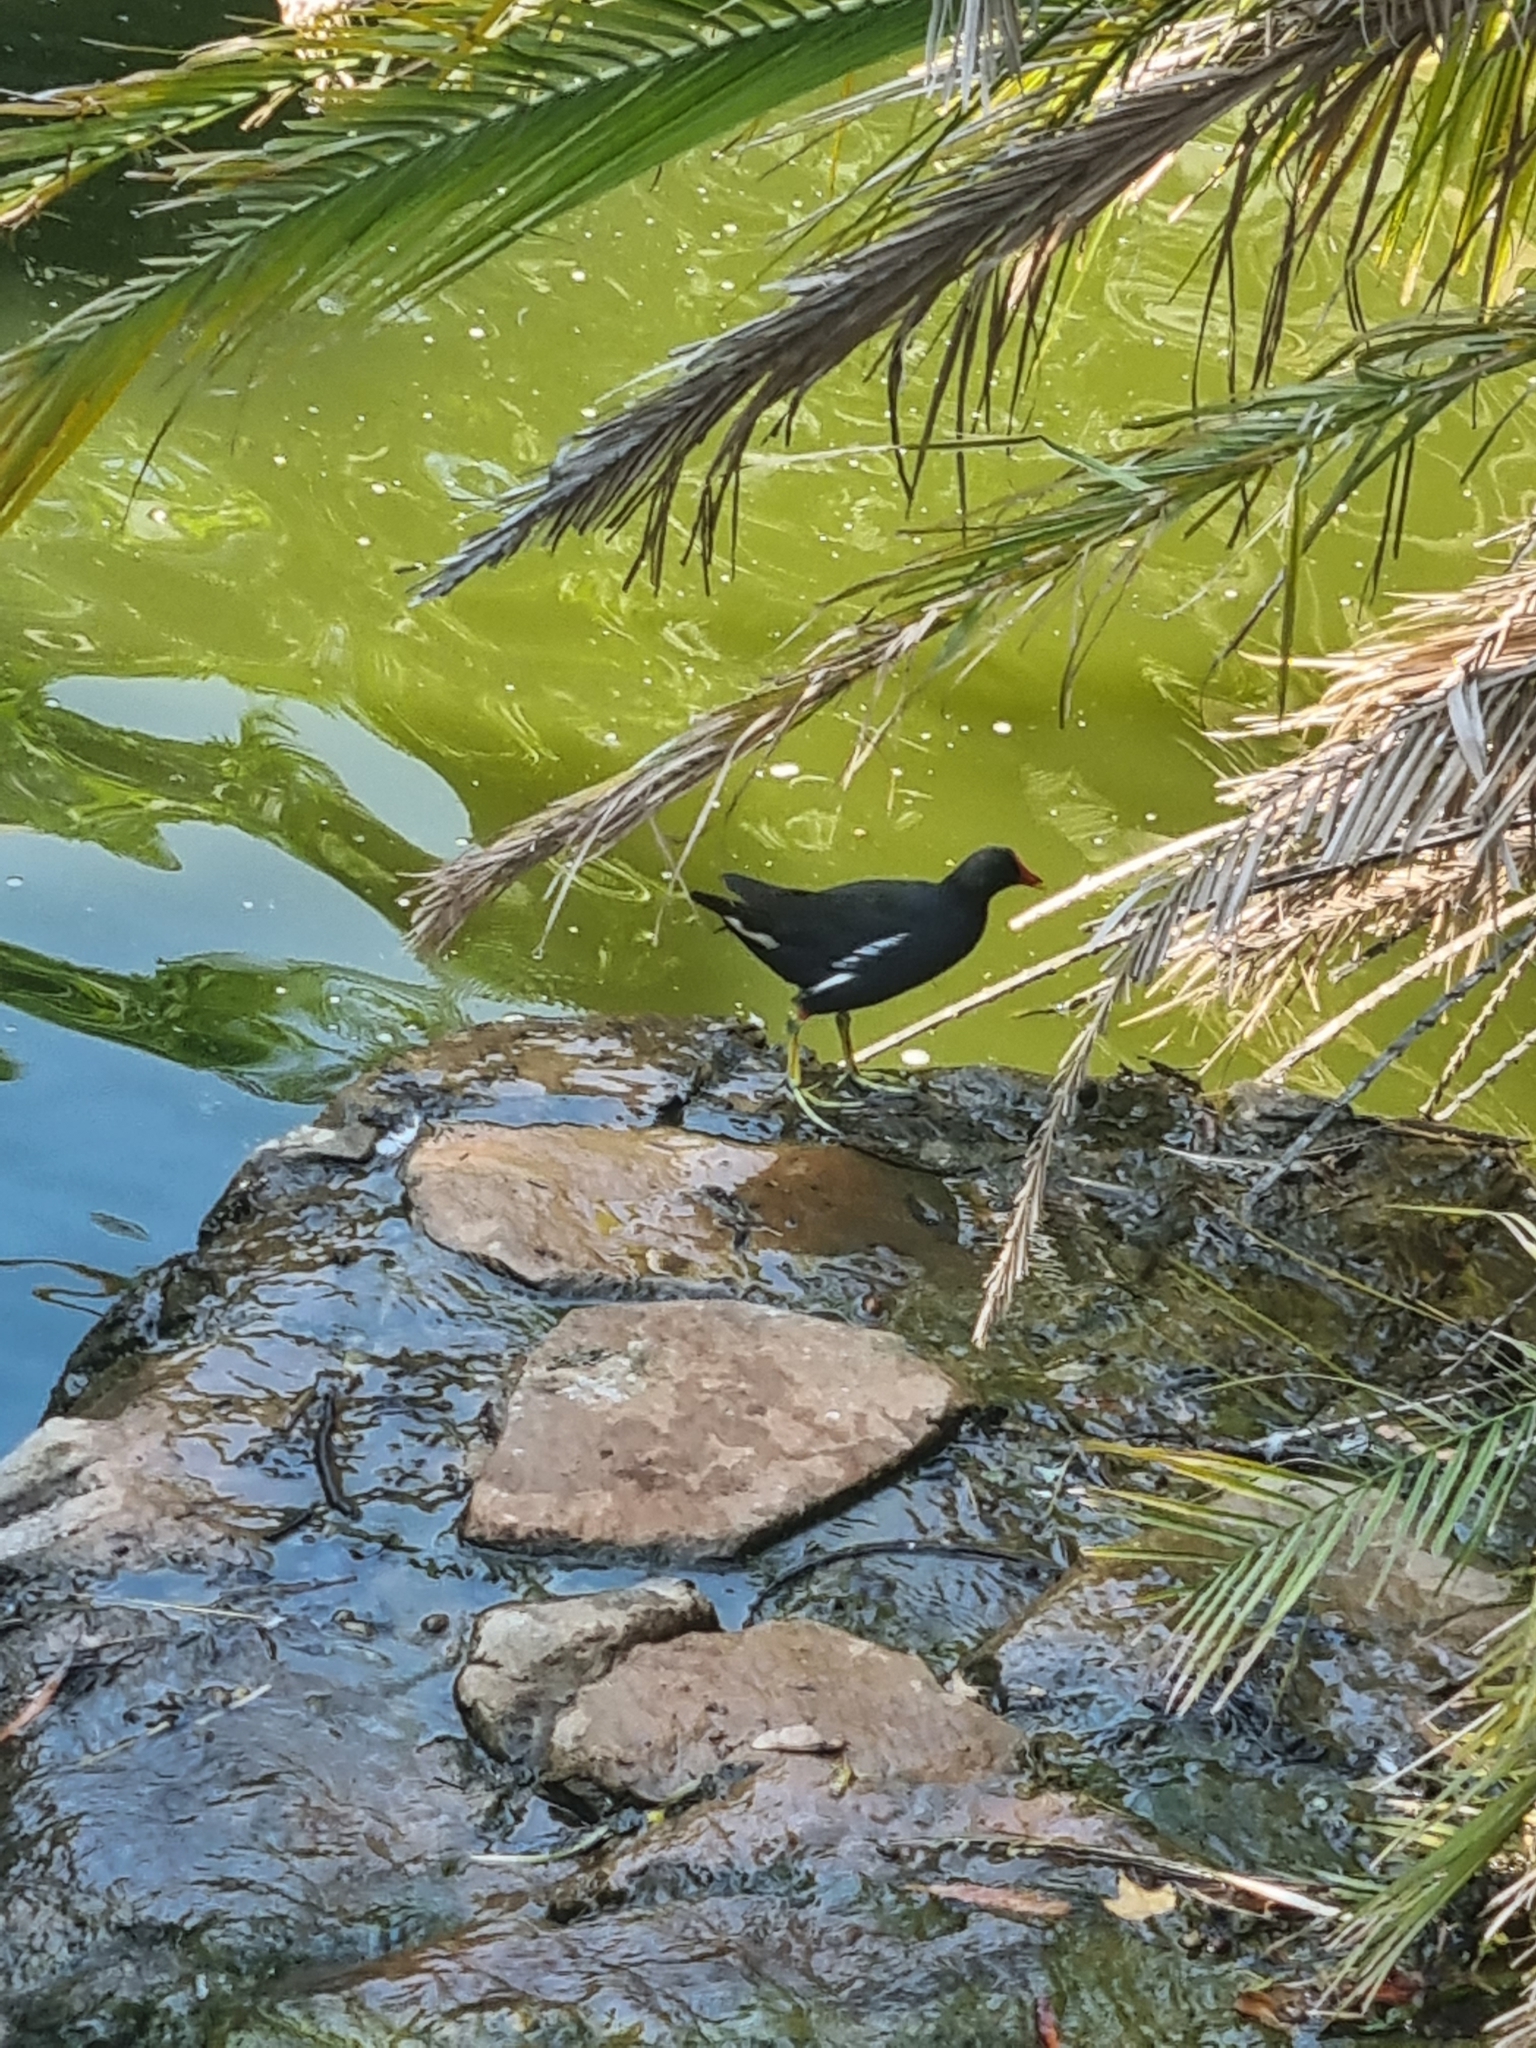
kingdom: Animalia
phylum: Chordata
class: Aves
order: Gruiformes
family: Rallidae
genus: Gallinula
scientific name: Gallinula chloropus
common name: Common moorhen
